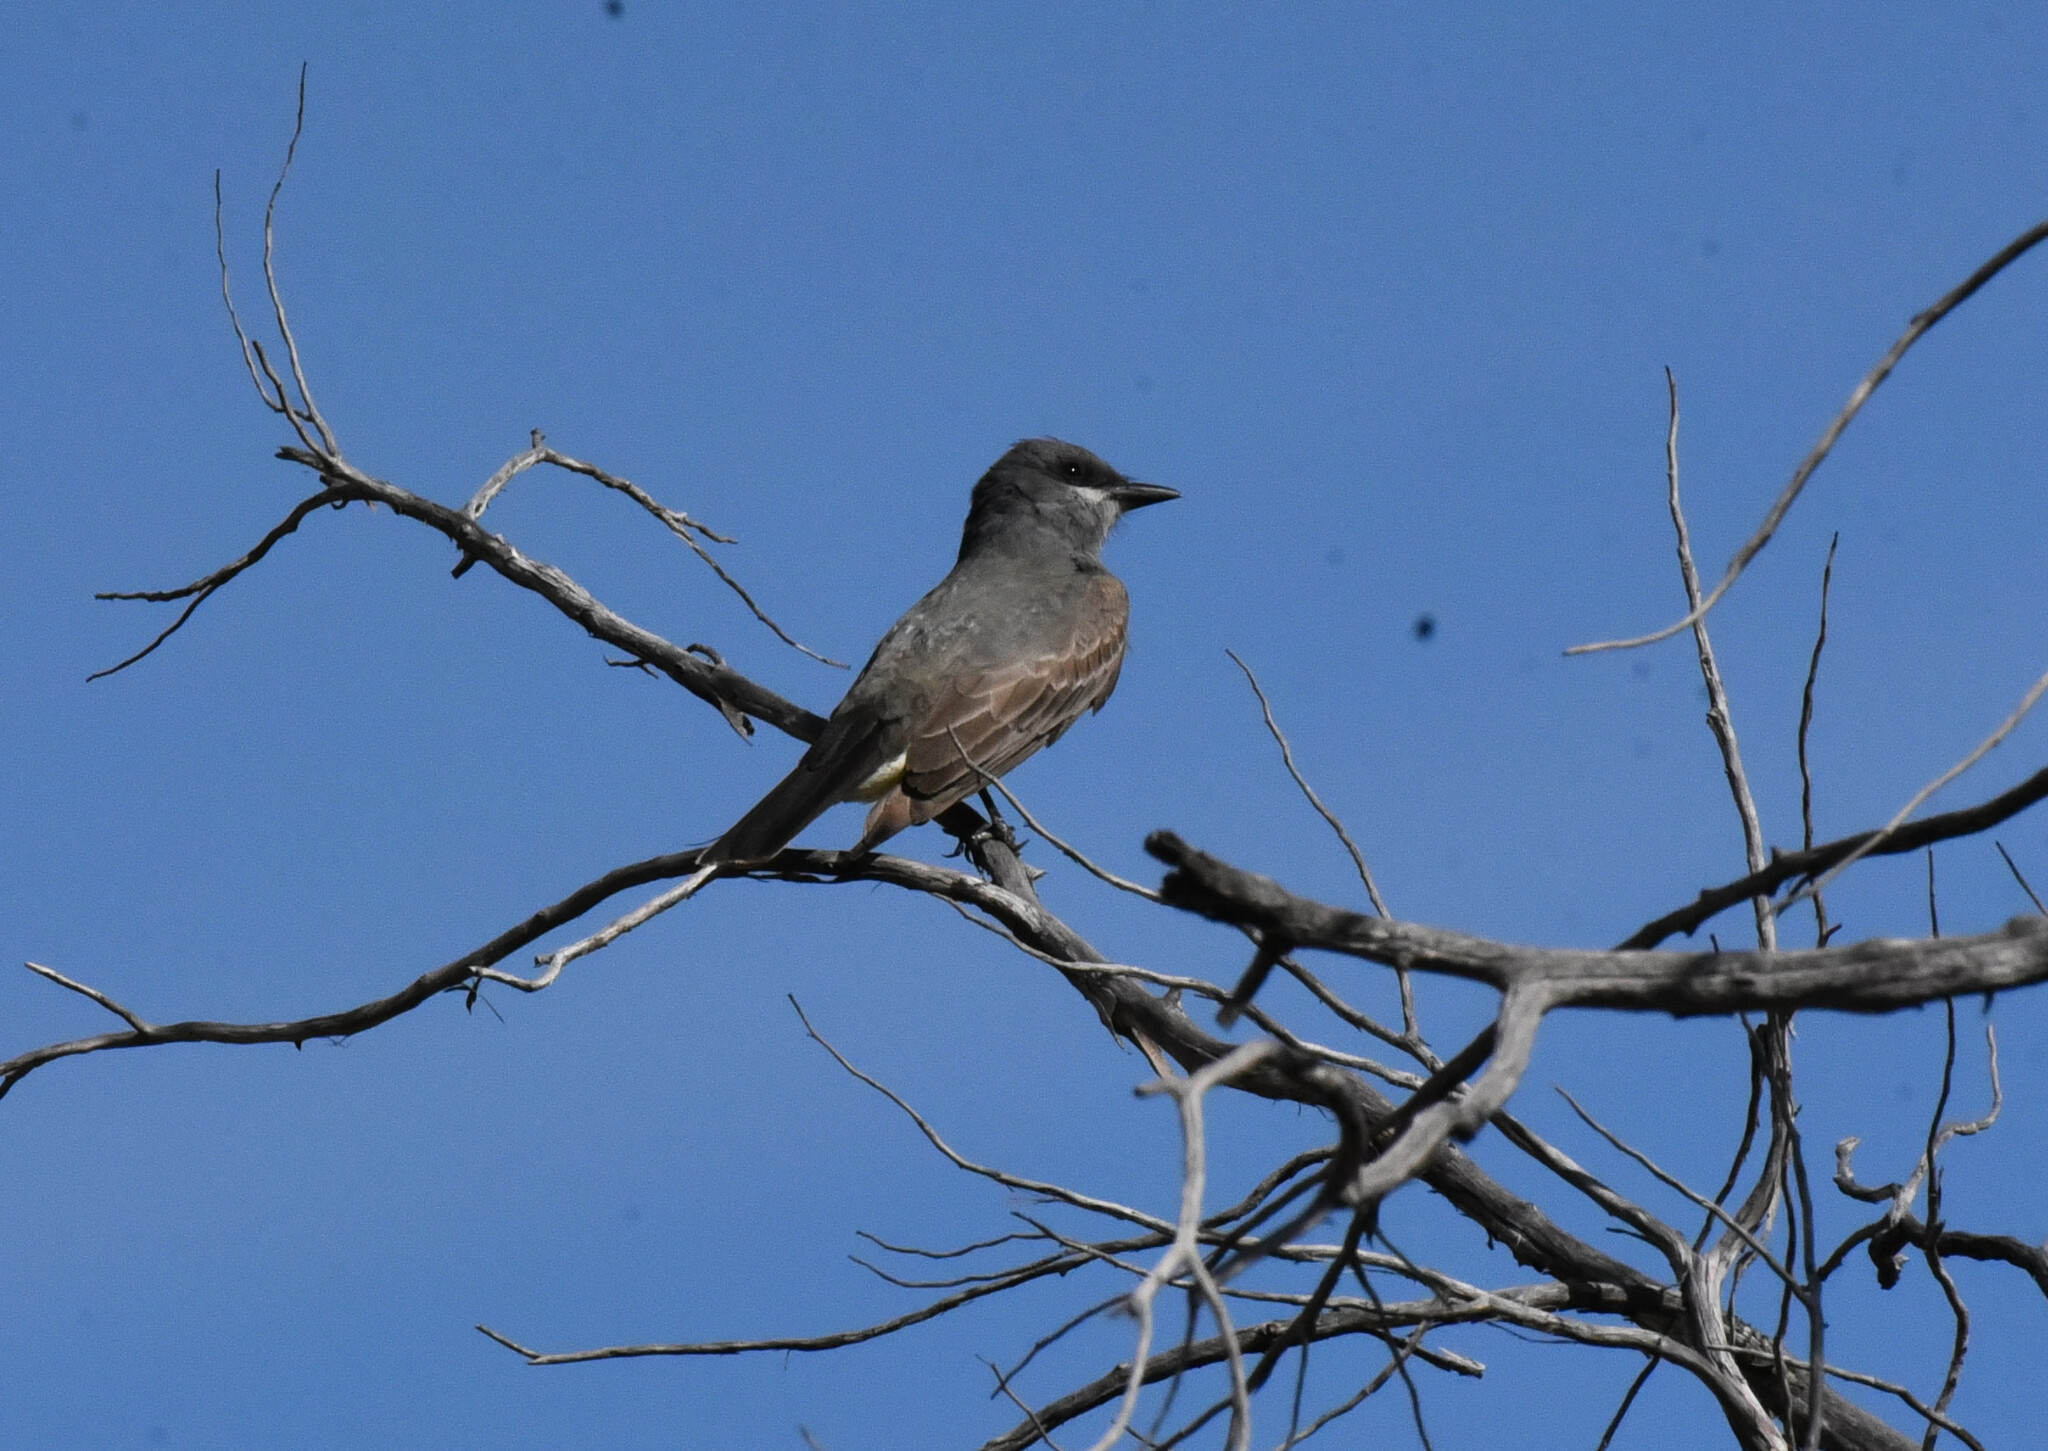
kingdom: Animalia
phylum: Chordata
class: Aves
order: Passeriformes
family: Tyrannidae
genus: Tyrannus
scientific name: Tyrannus vociferans
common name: Cassin's kingbird
